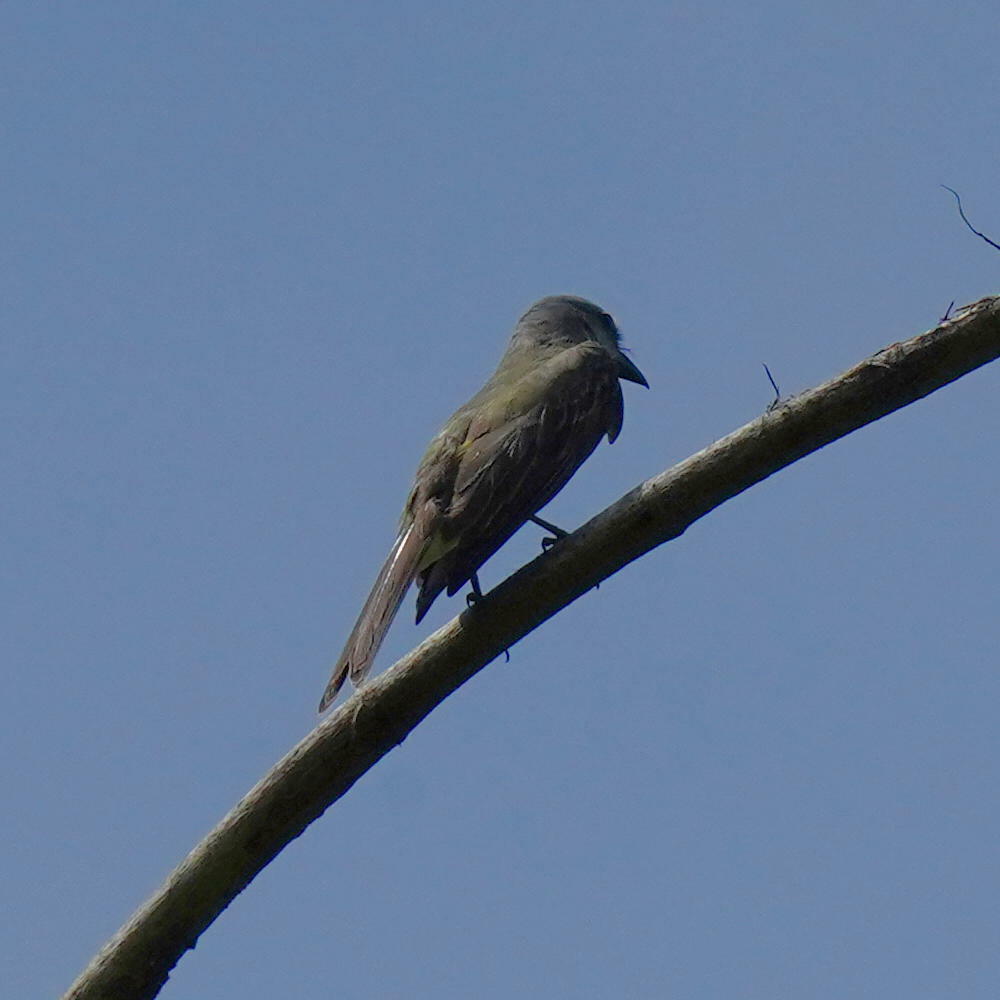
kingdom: Animalia
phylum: Chordata
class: Aves
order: Passeriformes
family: Tyrannidae
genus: Tyrannus
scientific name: Tyrannus melancholicus
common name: Tropical kingbird
